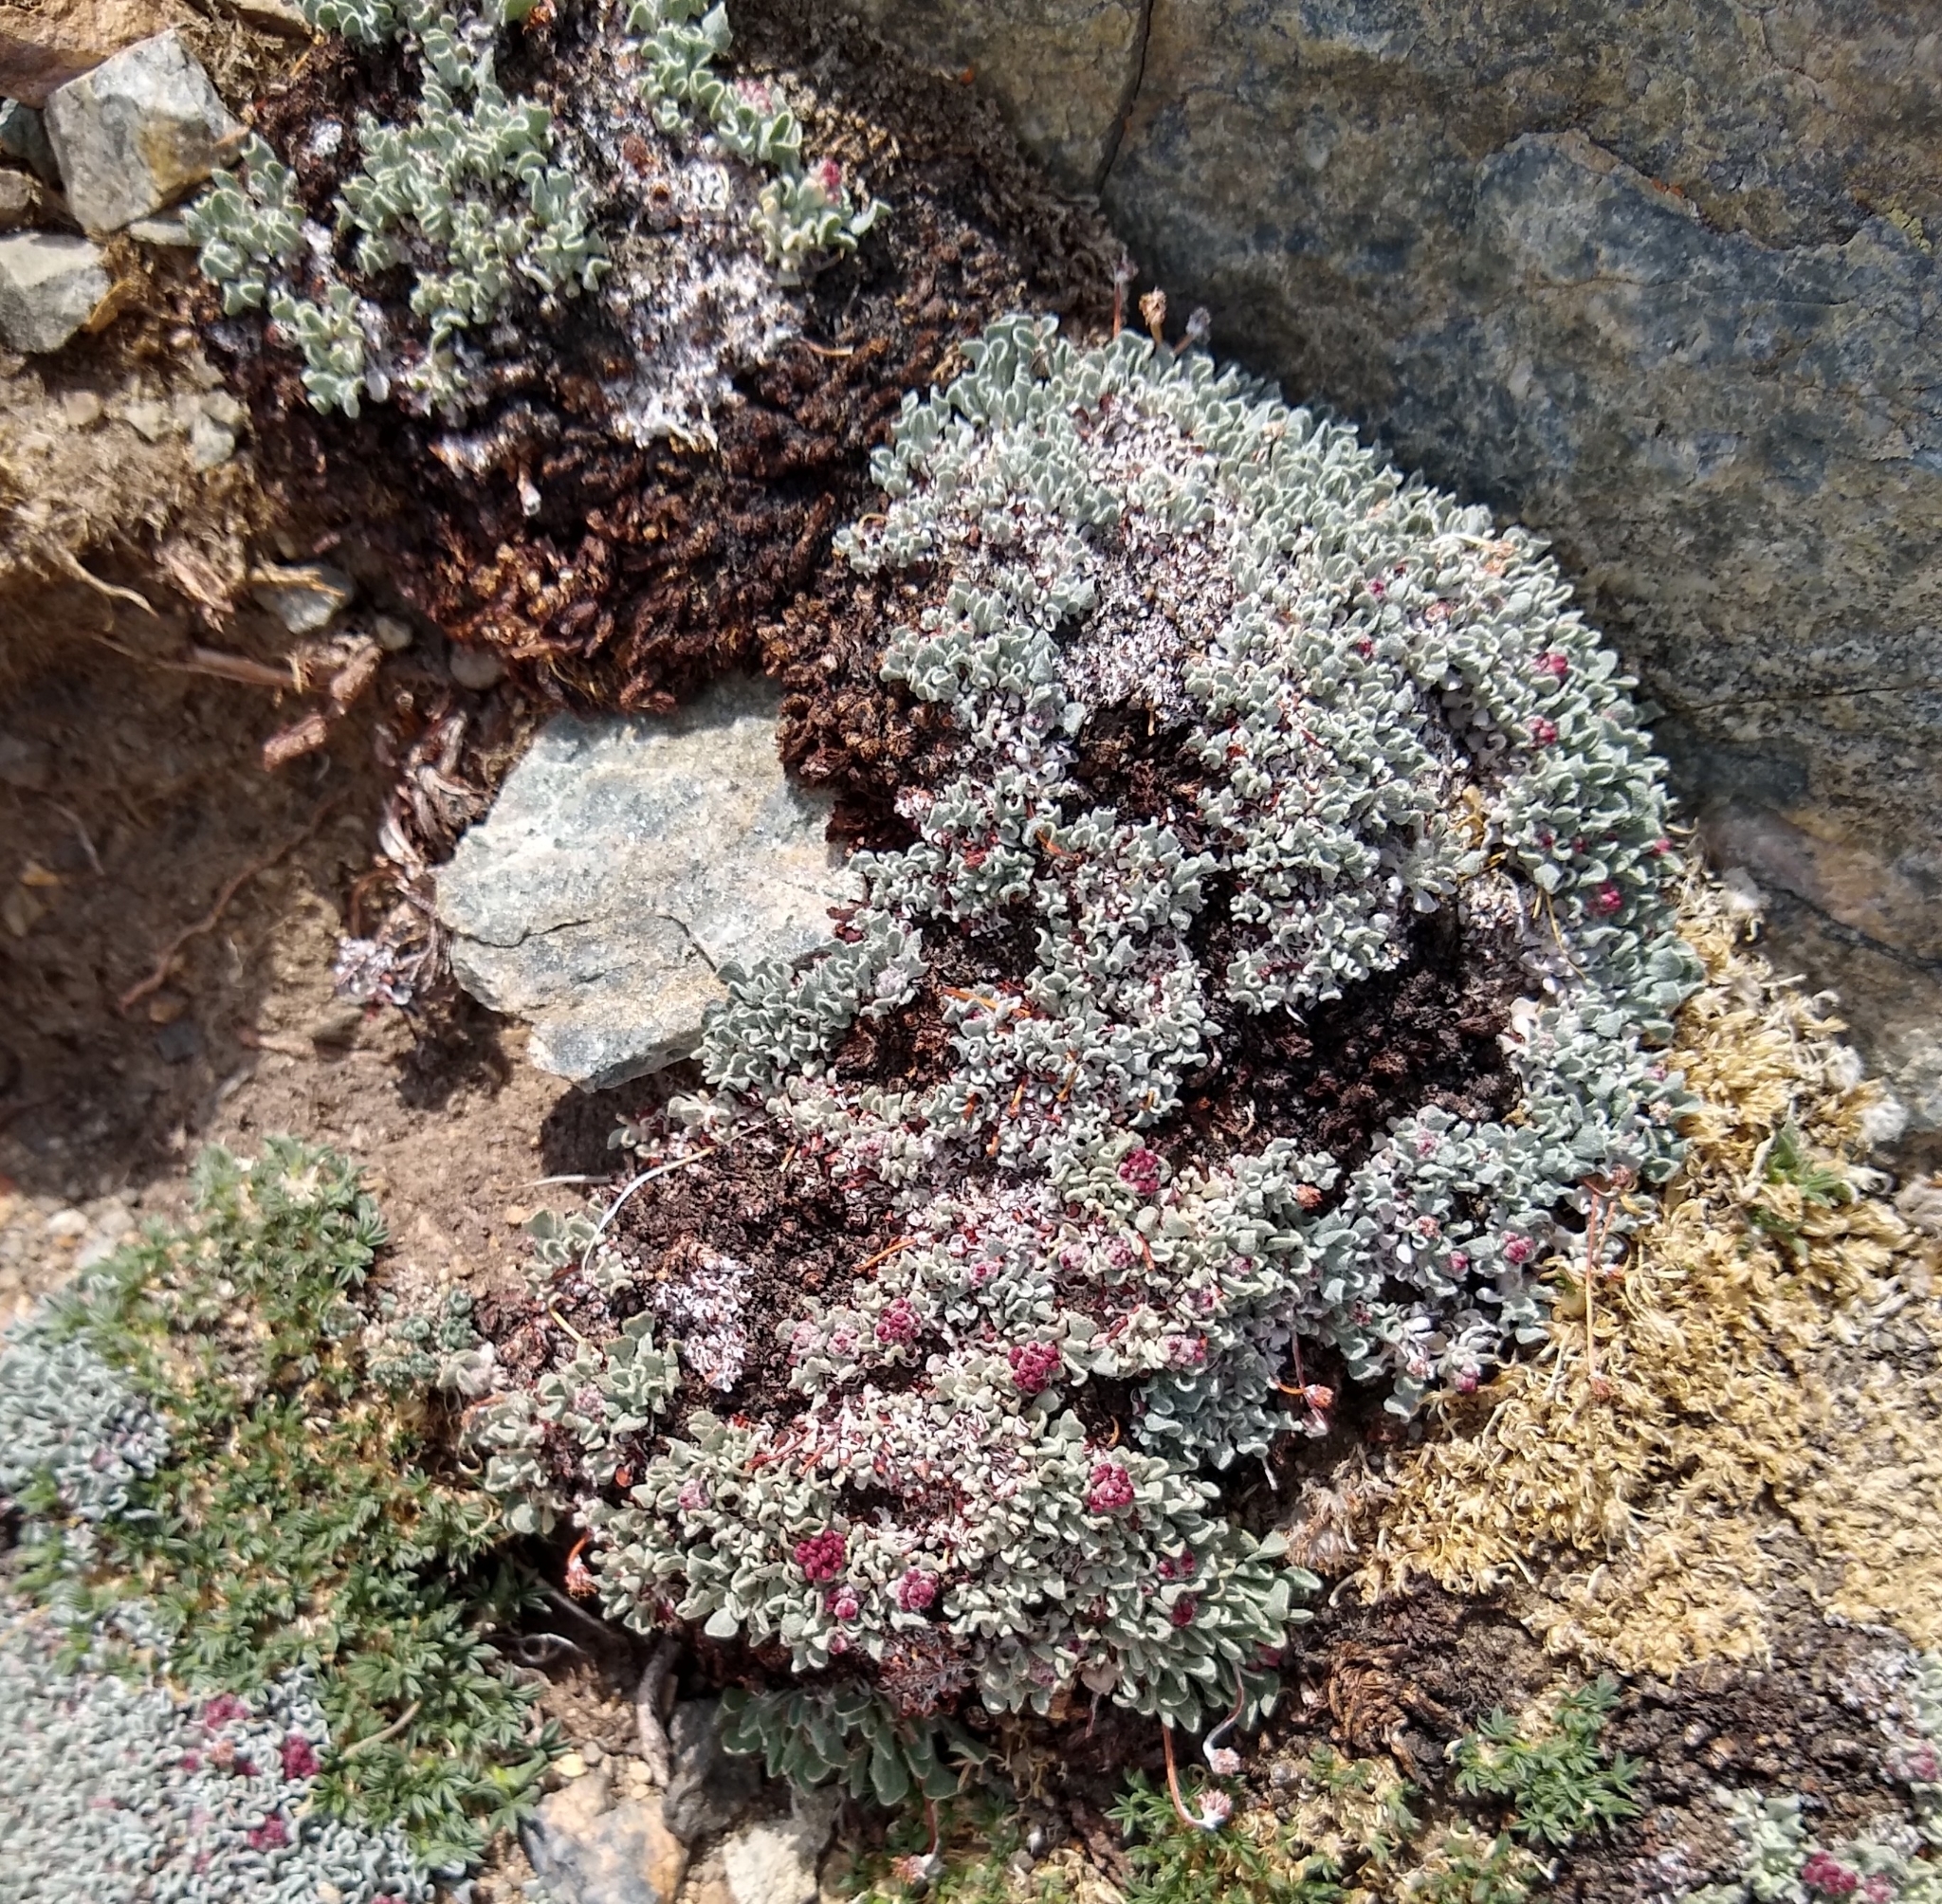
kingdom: Plantae
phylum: Tracheophyta
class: Magnoliopsida
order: Caryophyllales
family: Polygonaceae
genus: Eriogonum
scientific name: Eriogonum ovalifolium
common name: Cushion buckwheat
